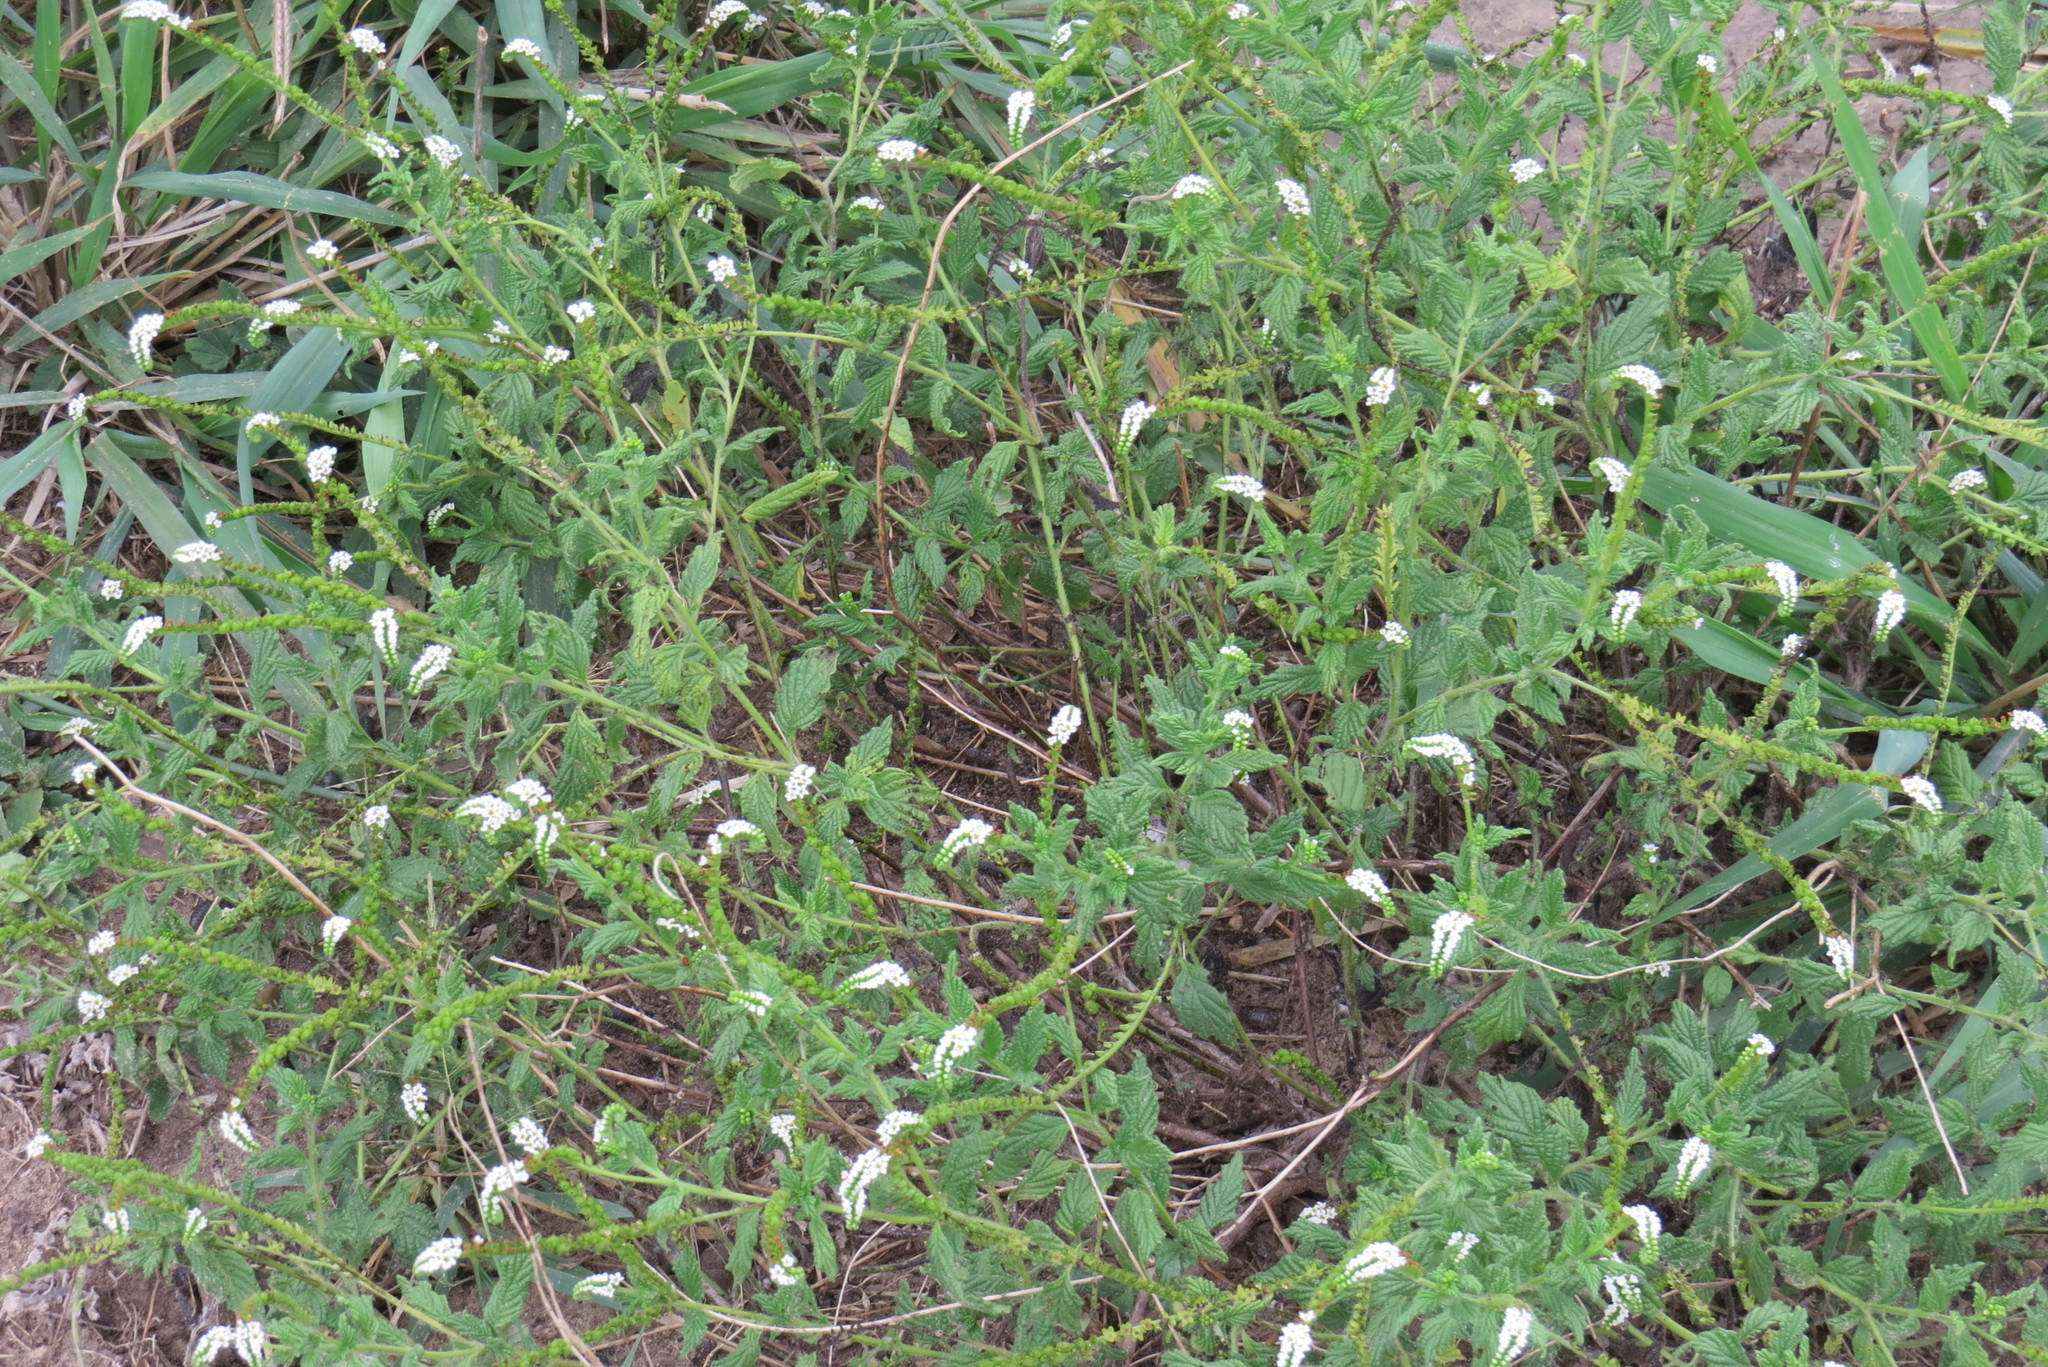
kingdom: Plantae
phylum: Tracheophyta
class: Magnoliopsida
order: Boraginales
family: Heliotropiaceae
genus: Heliotropium
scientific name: Heliotropium angiospermum
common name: Eye bright
